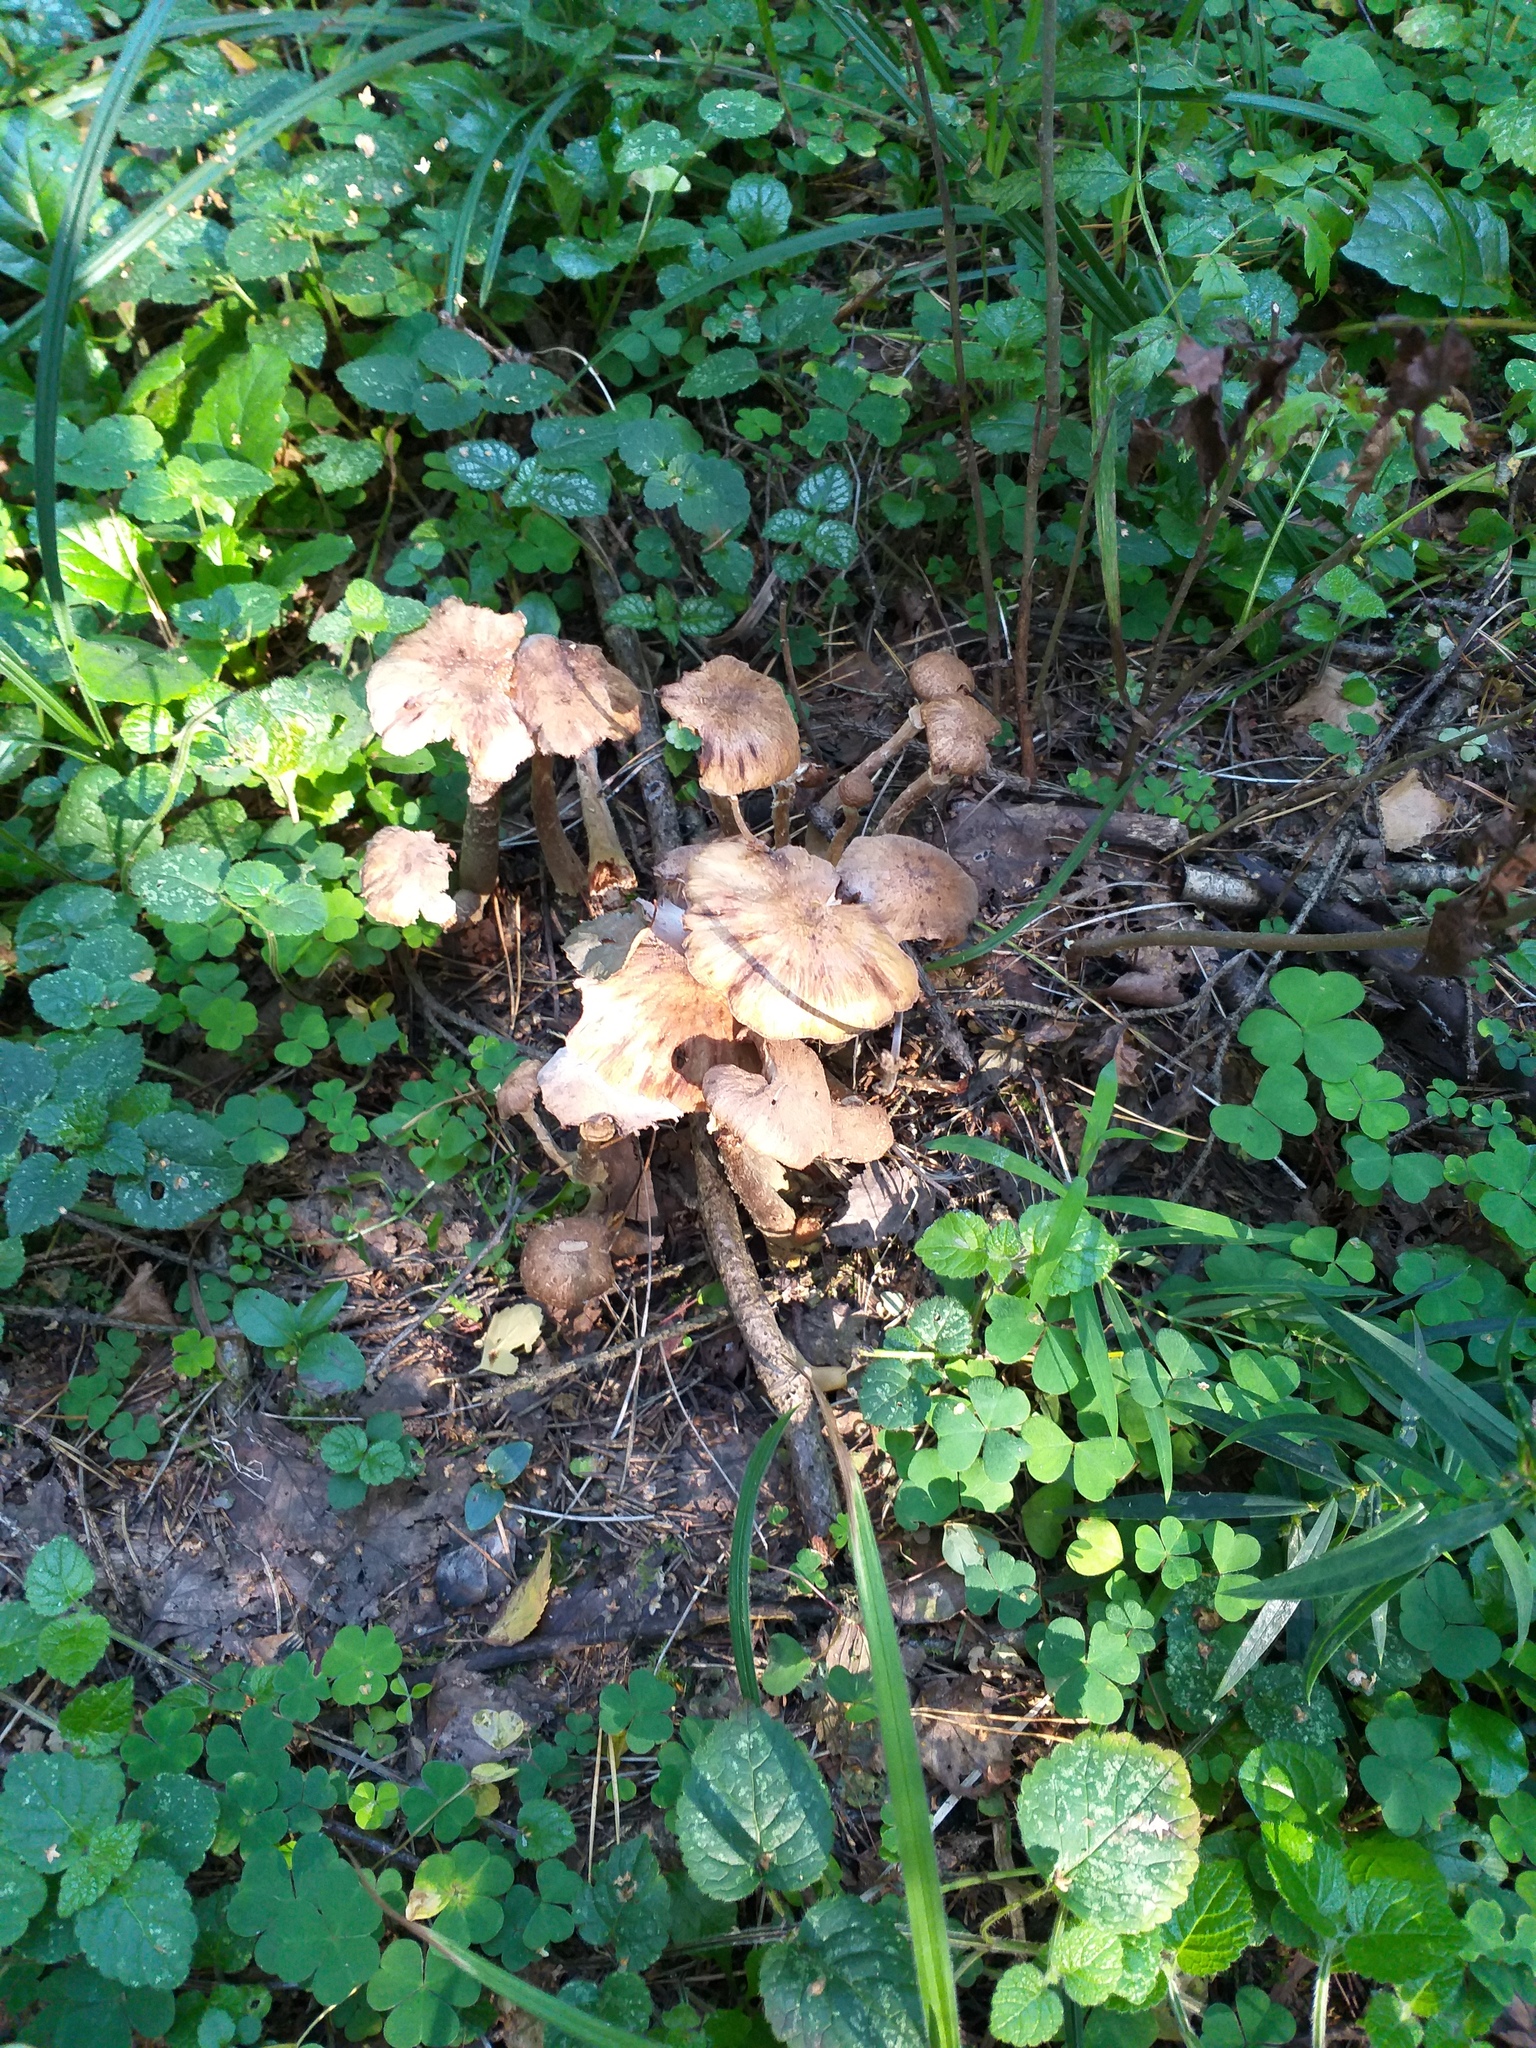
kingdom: Fungi
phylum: Basidiomycota
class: Agaricomycetes
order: Agaricales
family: Physalacriaceae
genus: Armillaria
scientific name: Armillaria borealis
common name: Northern honey fungus
